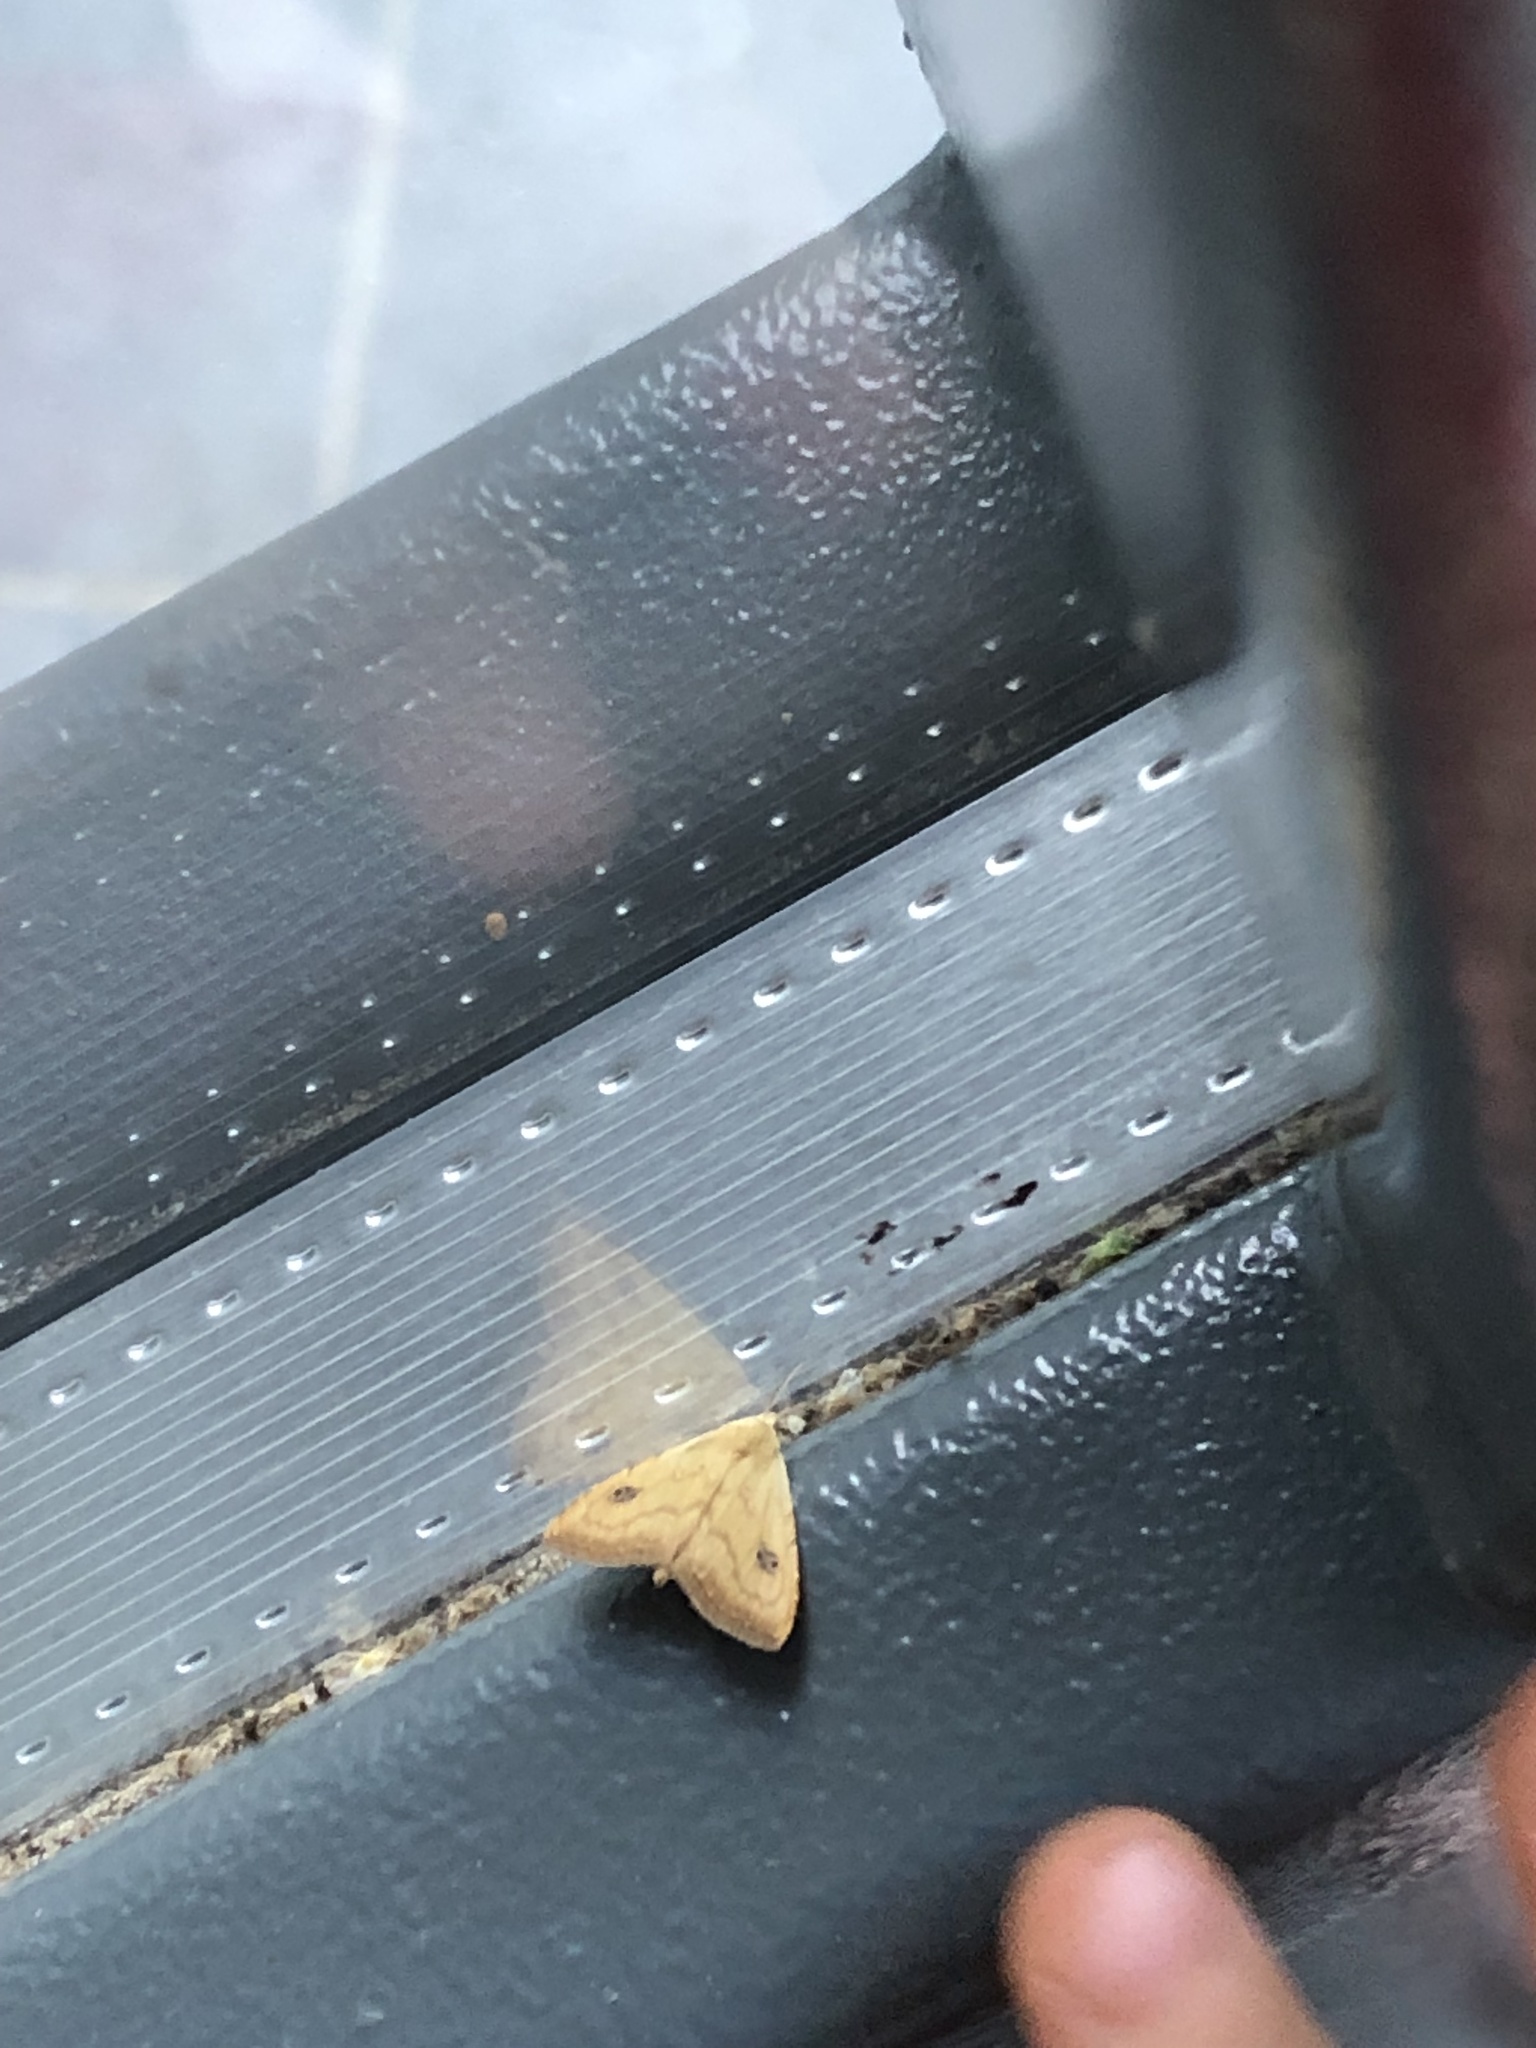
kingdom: Animalia
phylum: Arthropoda
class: Insecta
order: Lepidoptera
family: Erebidae
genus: Rivula
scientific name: Rivula sericealis
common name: Straw dot
